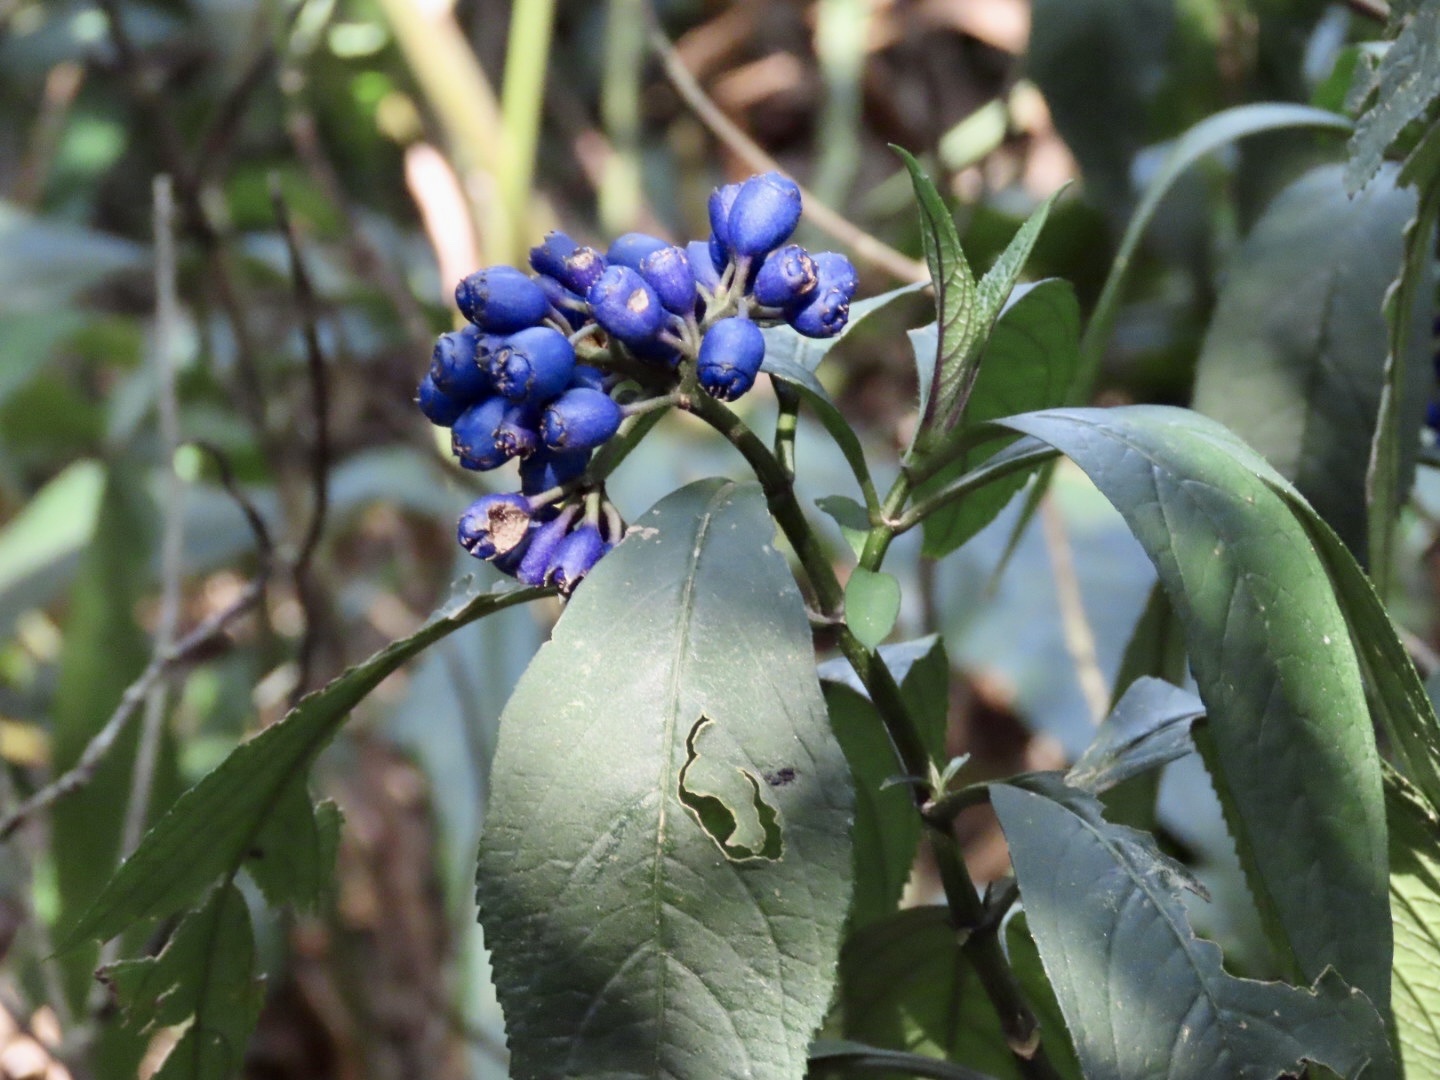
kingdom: Plantae
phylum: Tracheophyta
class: Magnoliopsida
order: Cornales
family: Hydrangeaceae
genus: Hydrangea
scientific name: Hydrangea febrifuga
